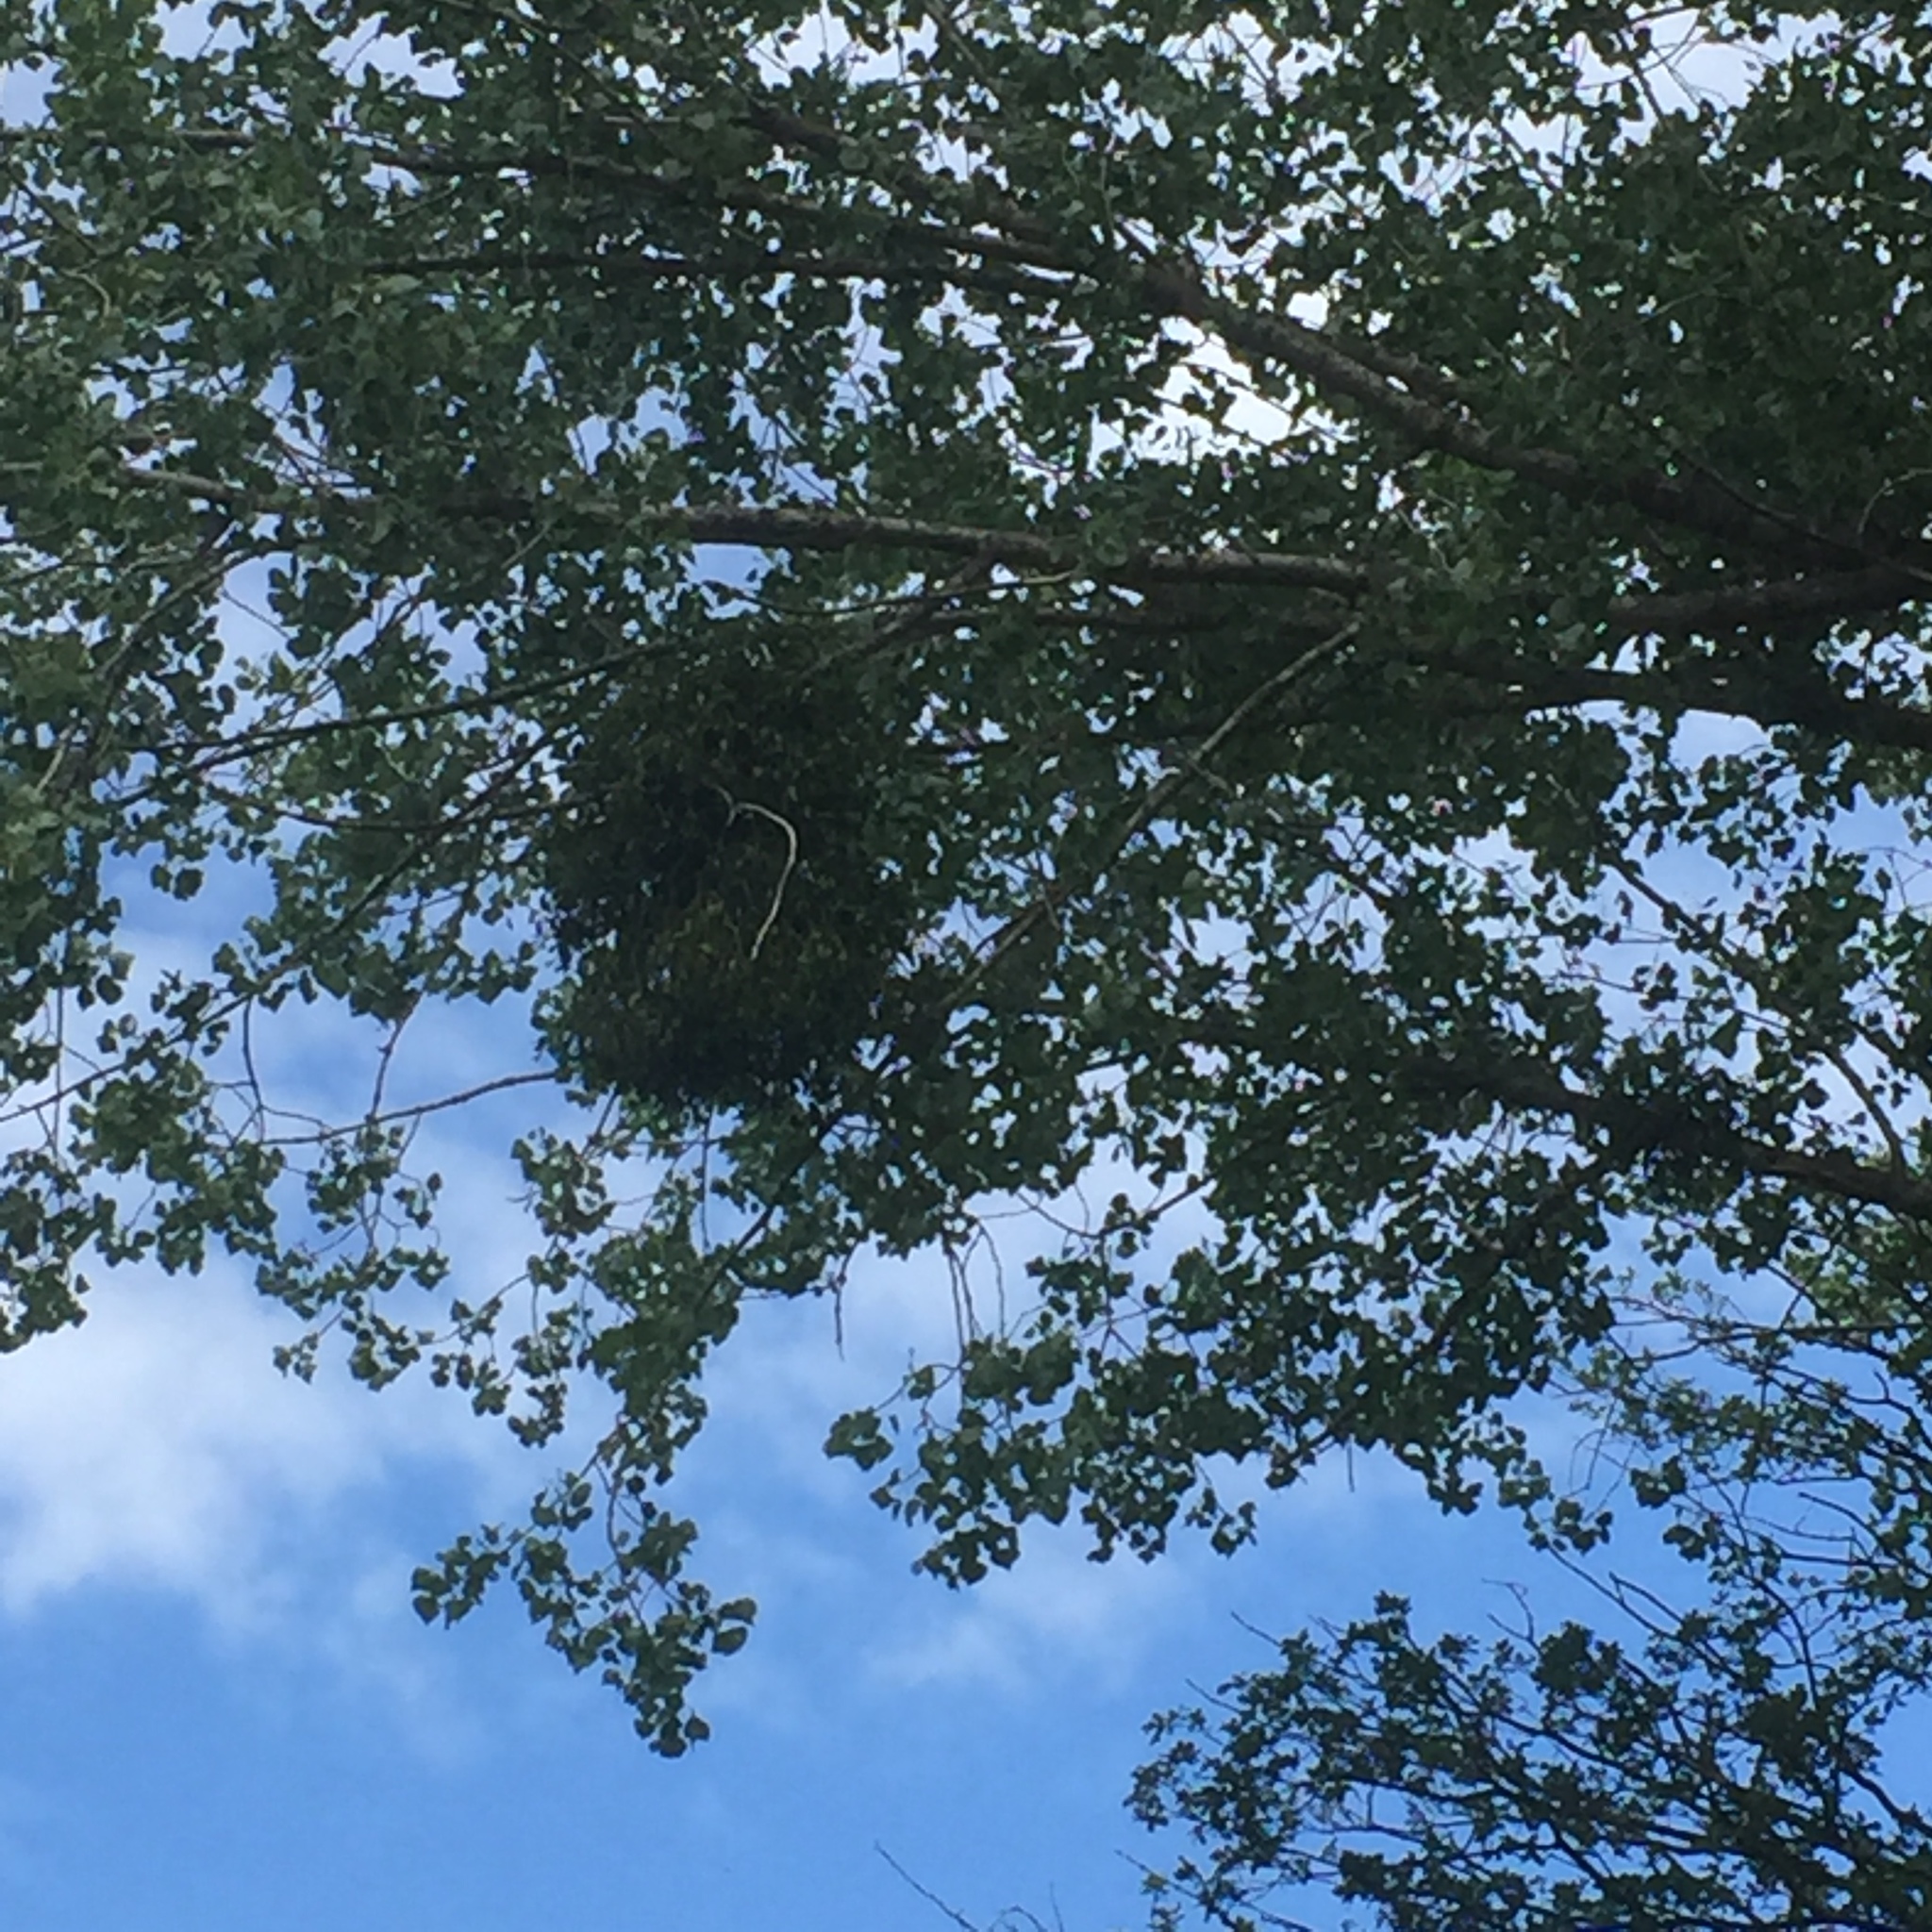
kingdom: Plantae
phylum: Tracheophyta
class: Magnoliopsida
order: Santalales
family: Viscaceae
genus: Viscum
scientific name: Viscum album
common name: Mistletoe
